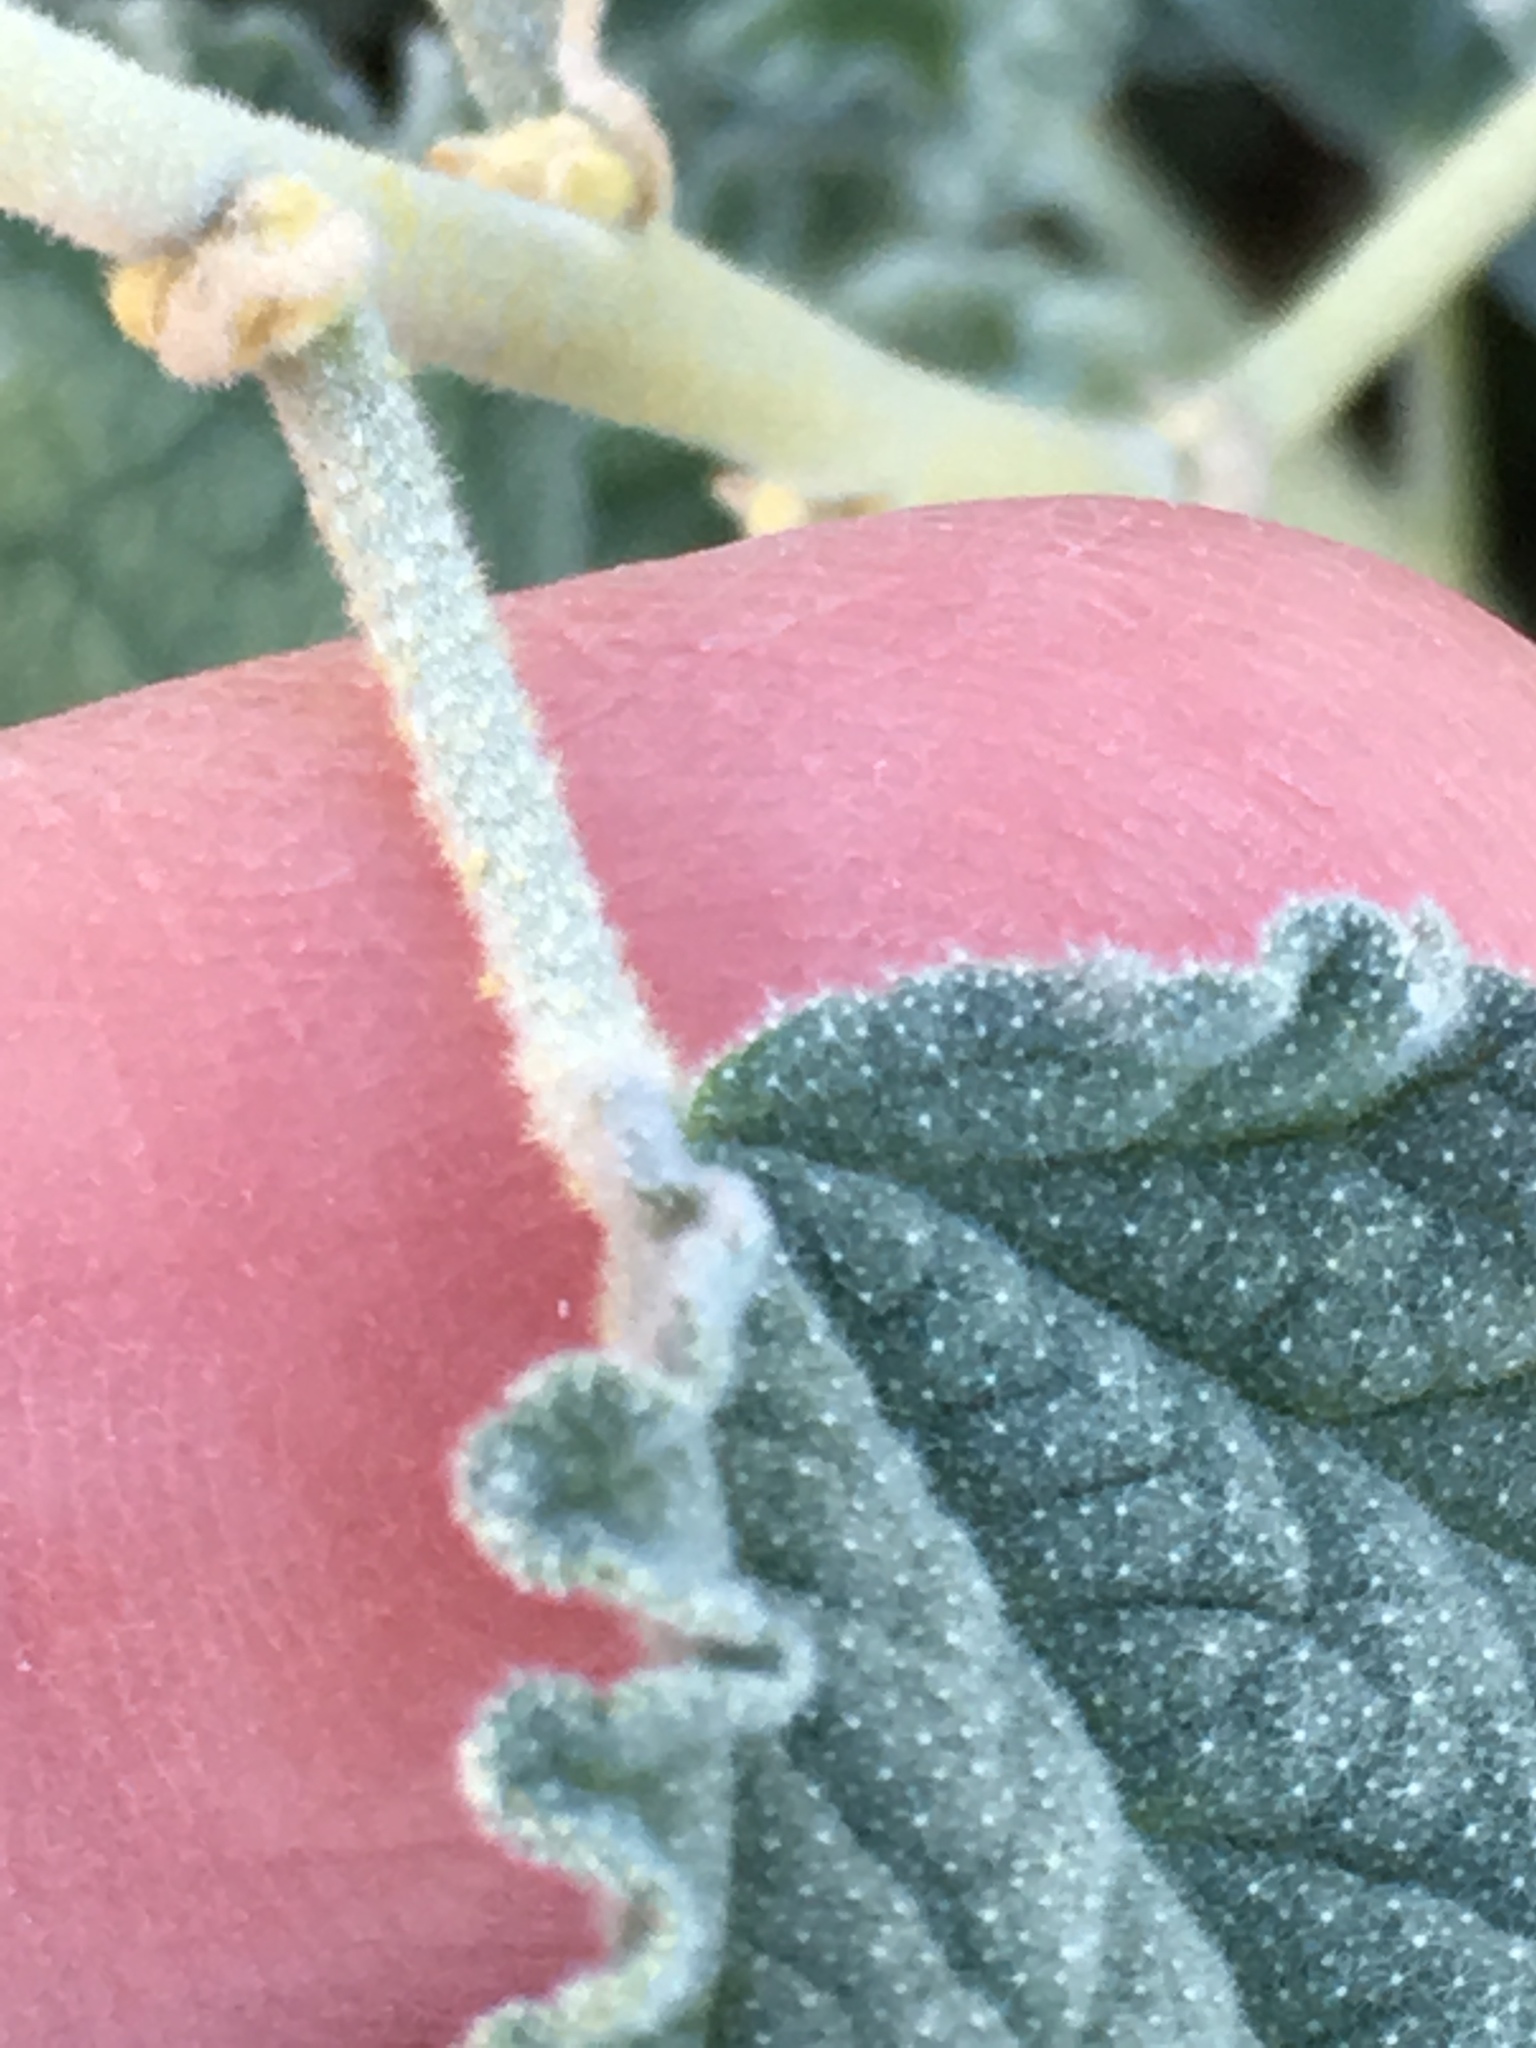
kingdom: Plantae
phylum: Tracheophyta
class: Magnoliopsida
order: Malvales
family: Malvaceae
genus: Sphaeralcea
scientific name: Sphaeralcea ambigua
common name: Apricot globe-mallow
